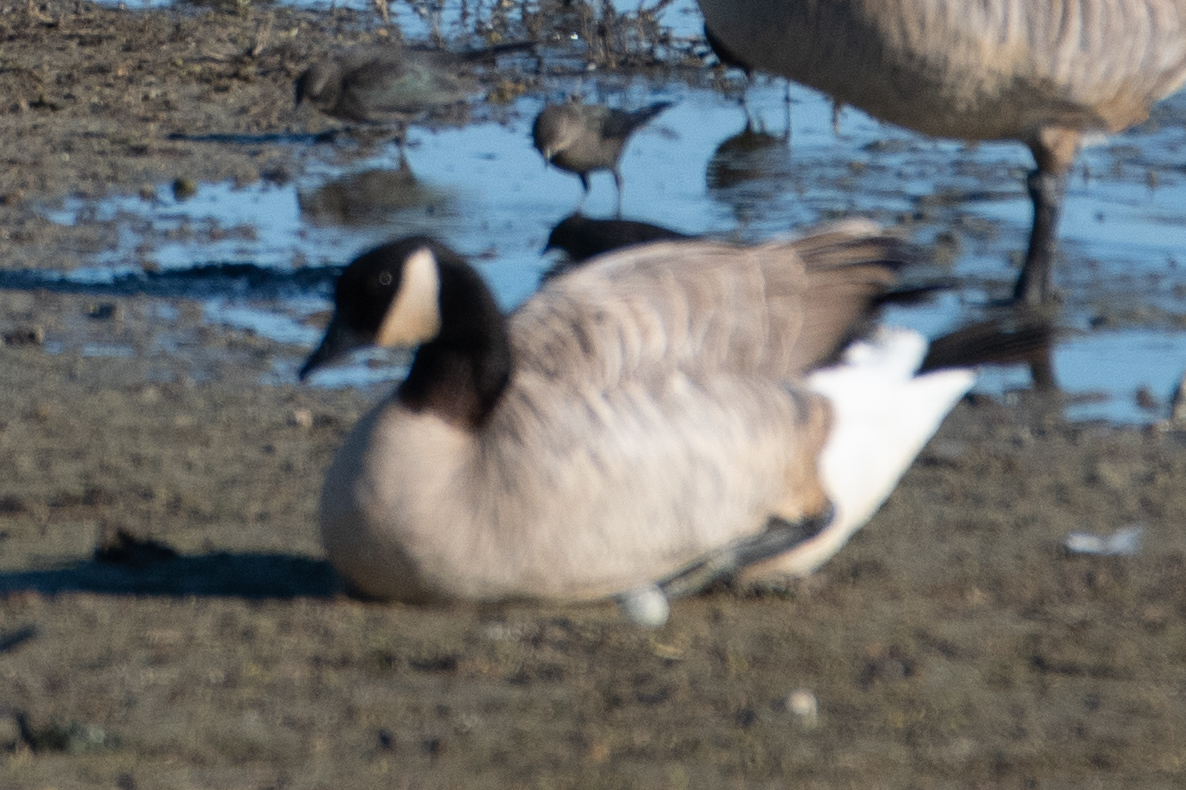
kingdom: Animalia
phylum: Chordata
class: Aves
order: Anseriformes
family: Anatidae
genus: Branta
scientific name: Branta canadensis
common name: Canada goose
